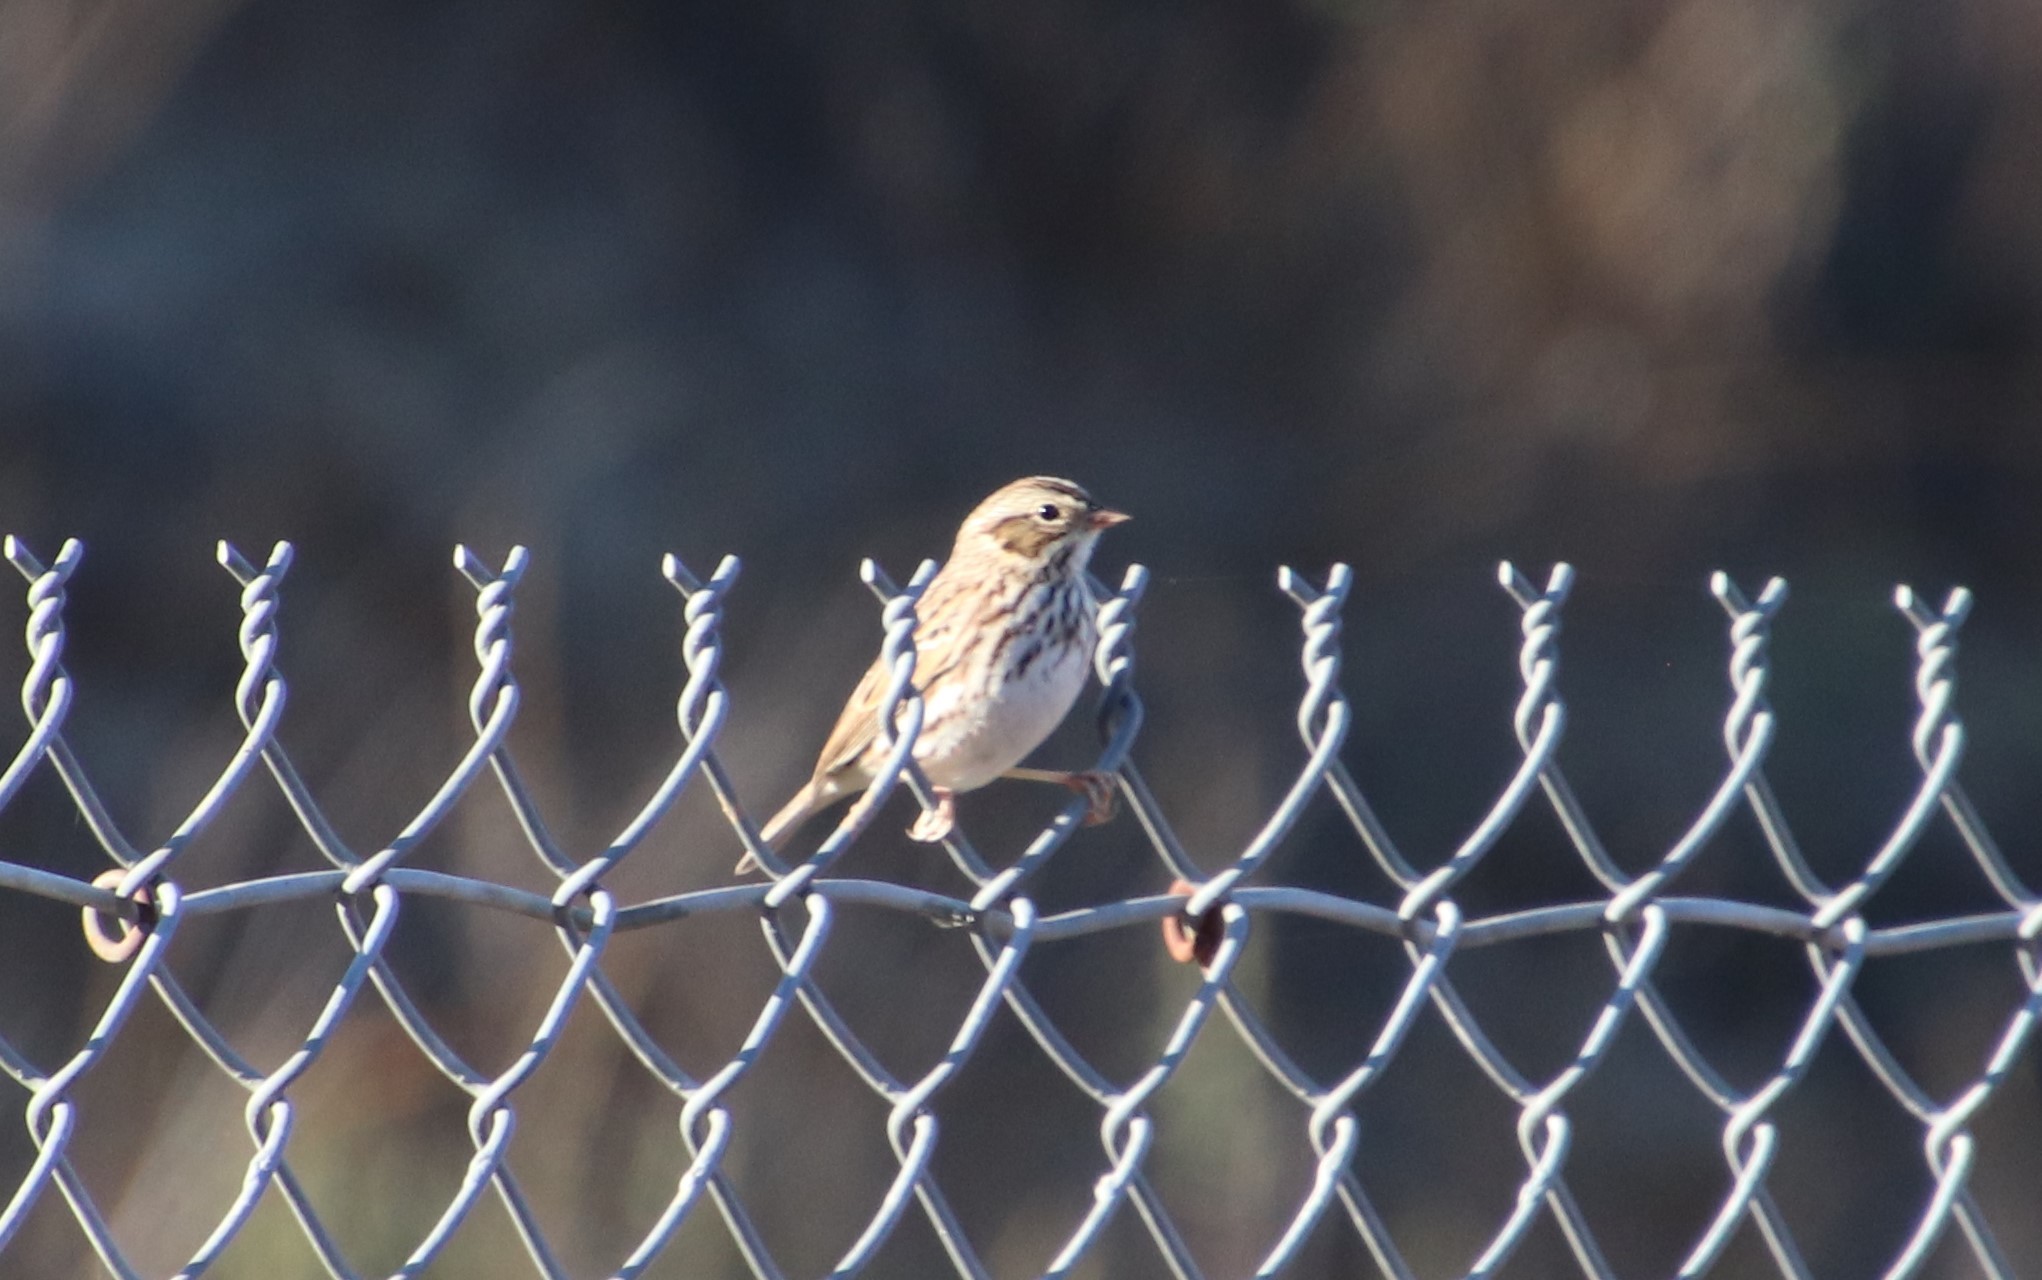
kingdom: Animalia
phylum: Chordata
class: Aves
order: Passeriformes
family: Passerellidae
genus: Passerculus
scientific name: Passerculus sandwichensis
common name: Savannah sparrow
